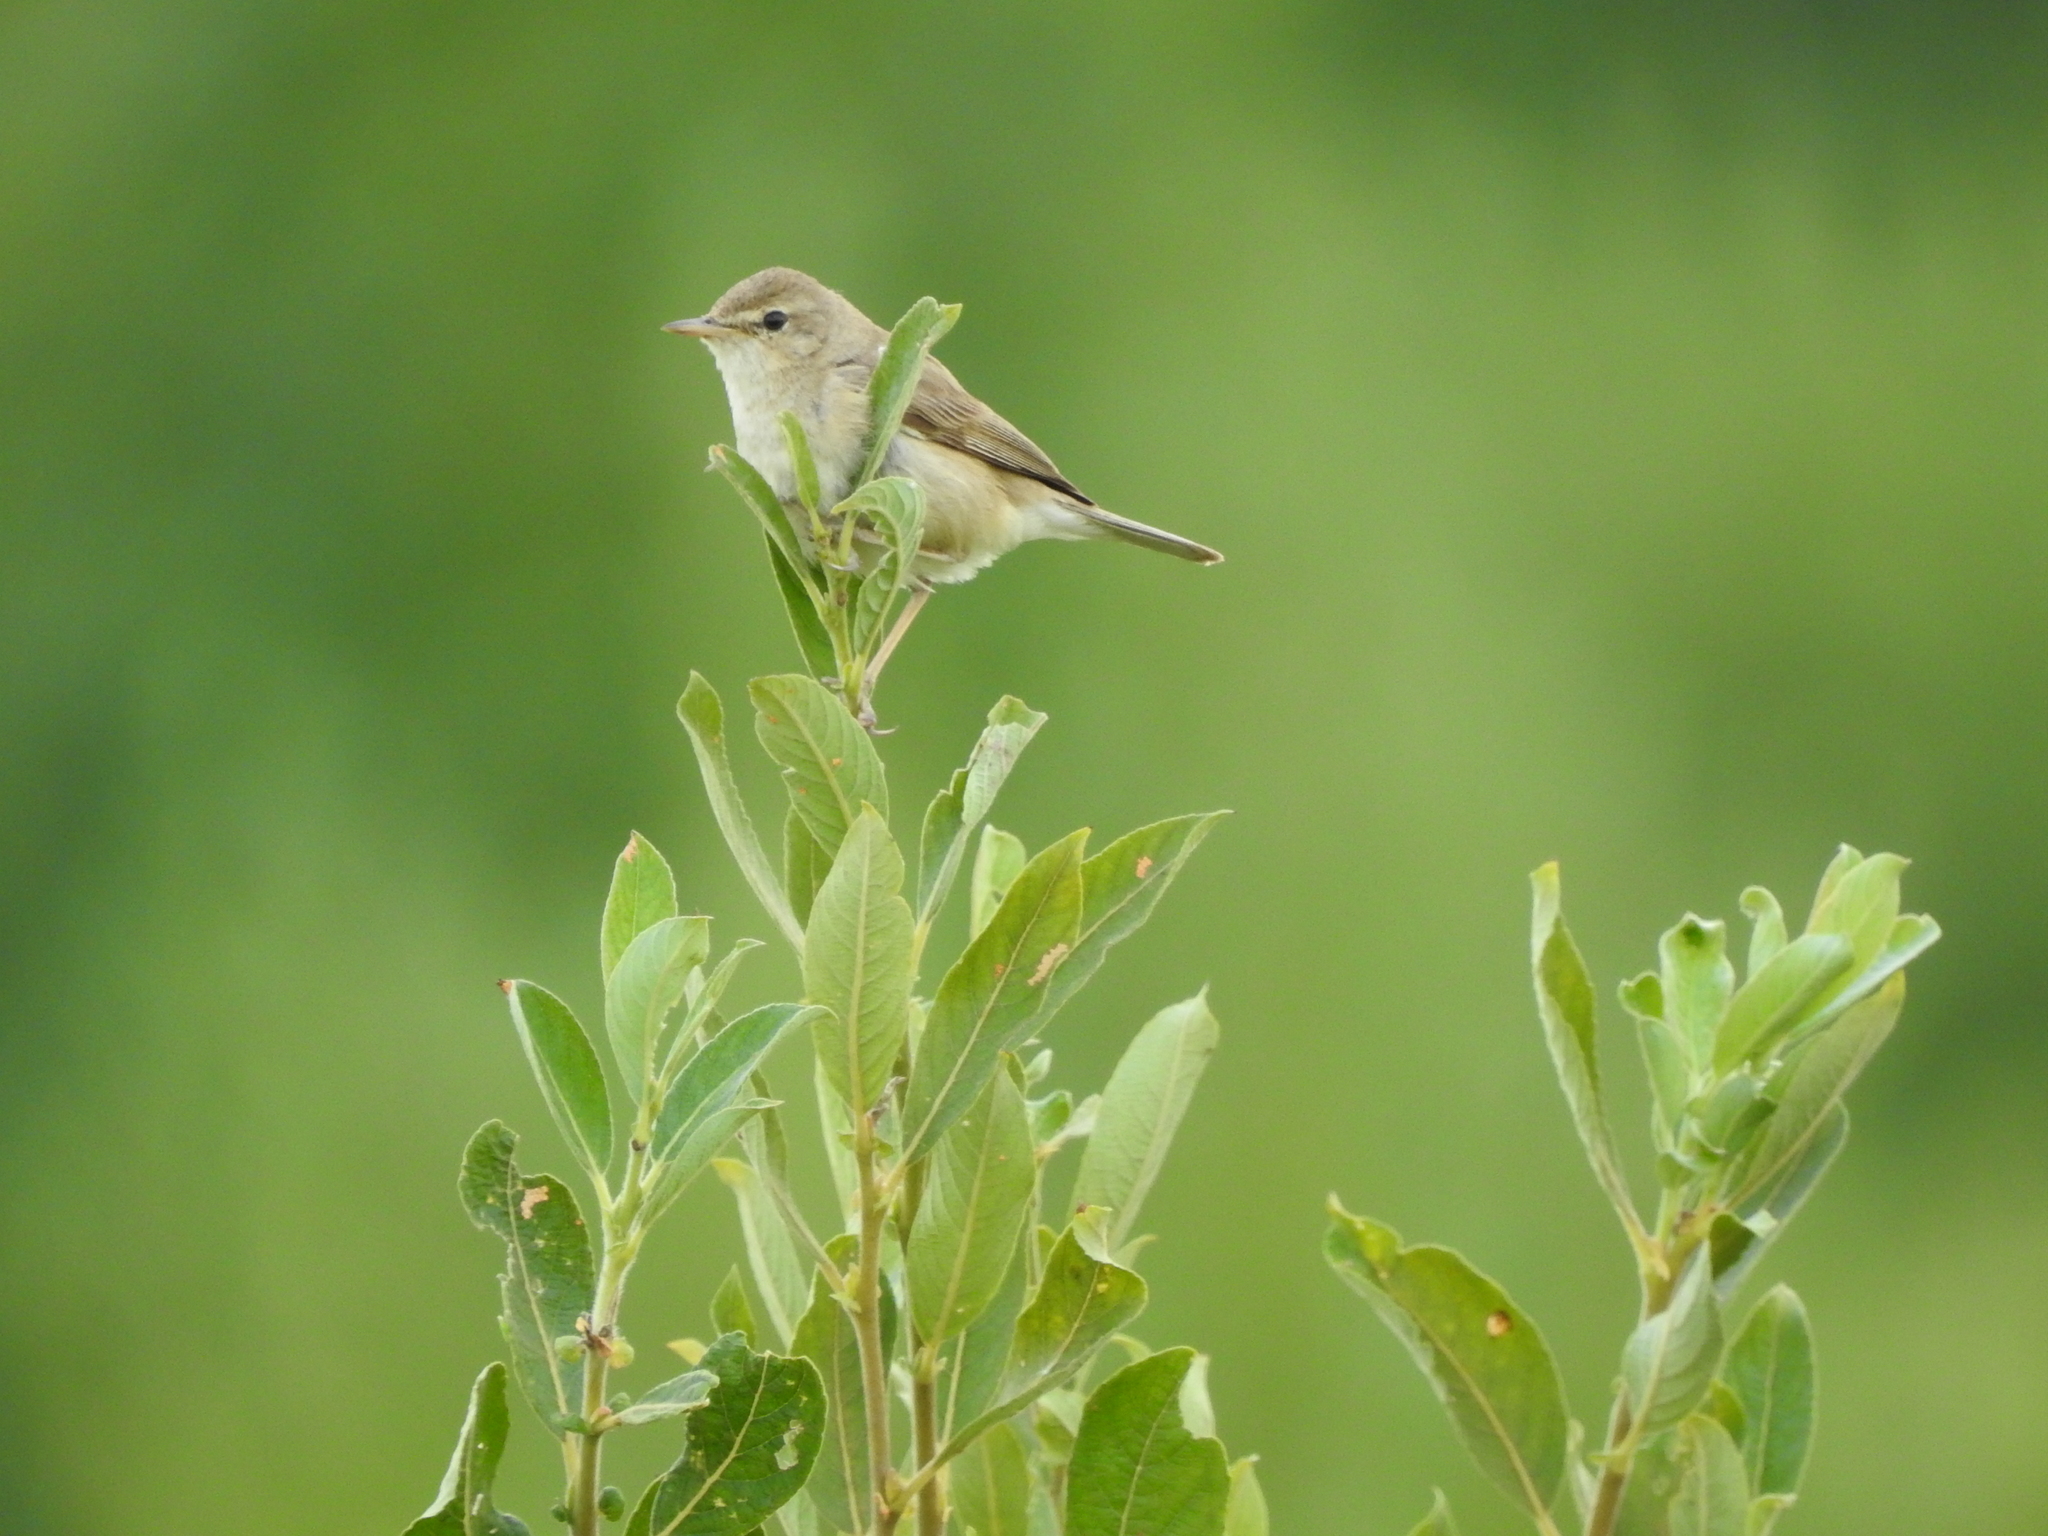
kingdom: Animalia
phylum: Chordata
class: Aves
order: Passeriformes
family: Acrocephalidae
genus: Iduna
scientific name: Iduna caligata
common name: Booted warbler
